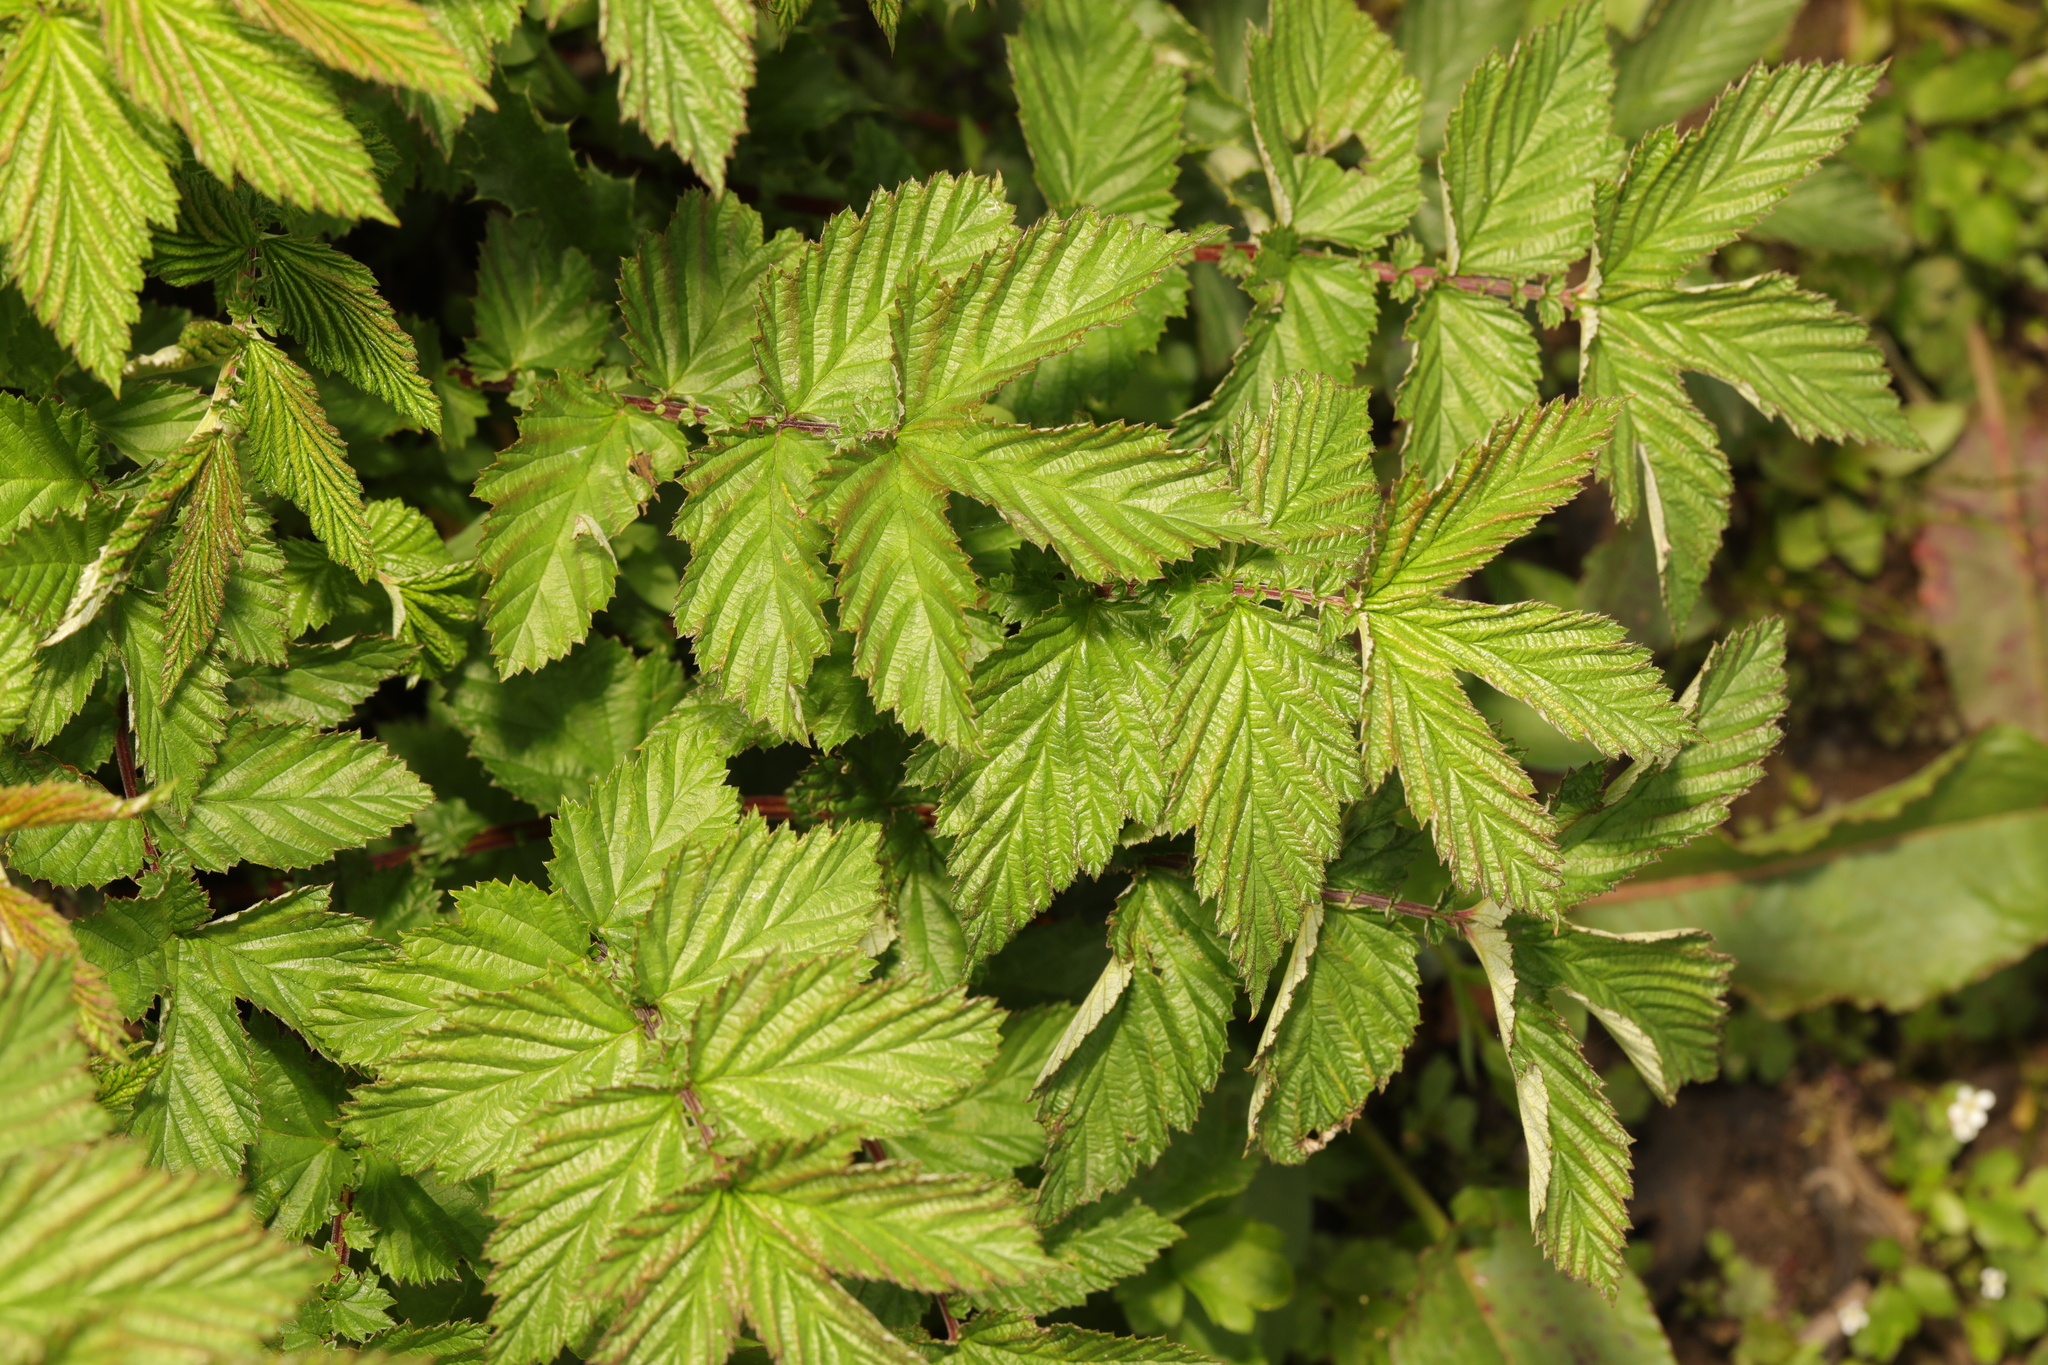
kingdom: Plantae
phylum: Tracheophyta
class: Magnoliopsida
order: Rosales
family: Rosaceae
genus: Filipendula
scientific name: Filipendula ulmaria
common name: Meadowsweet
